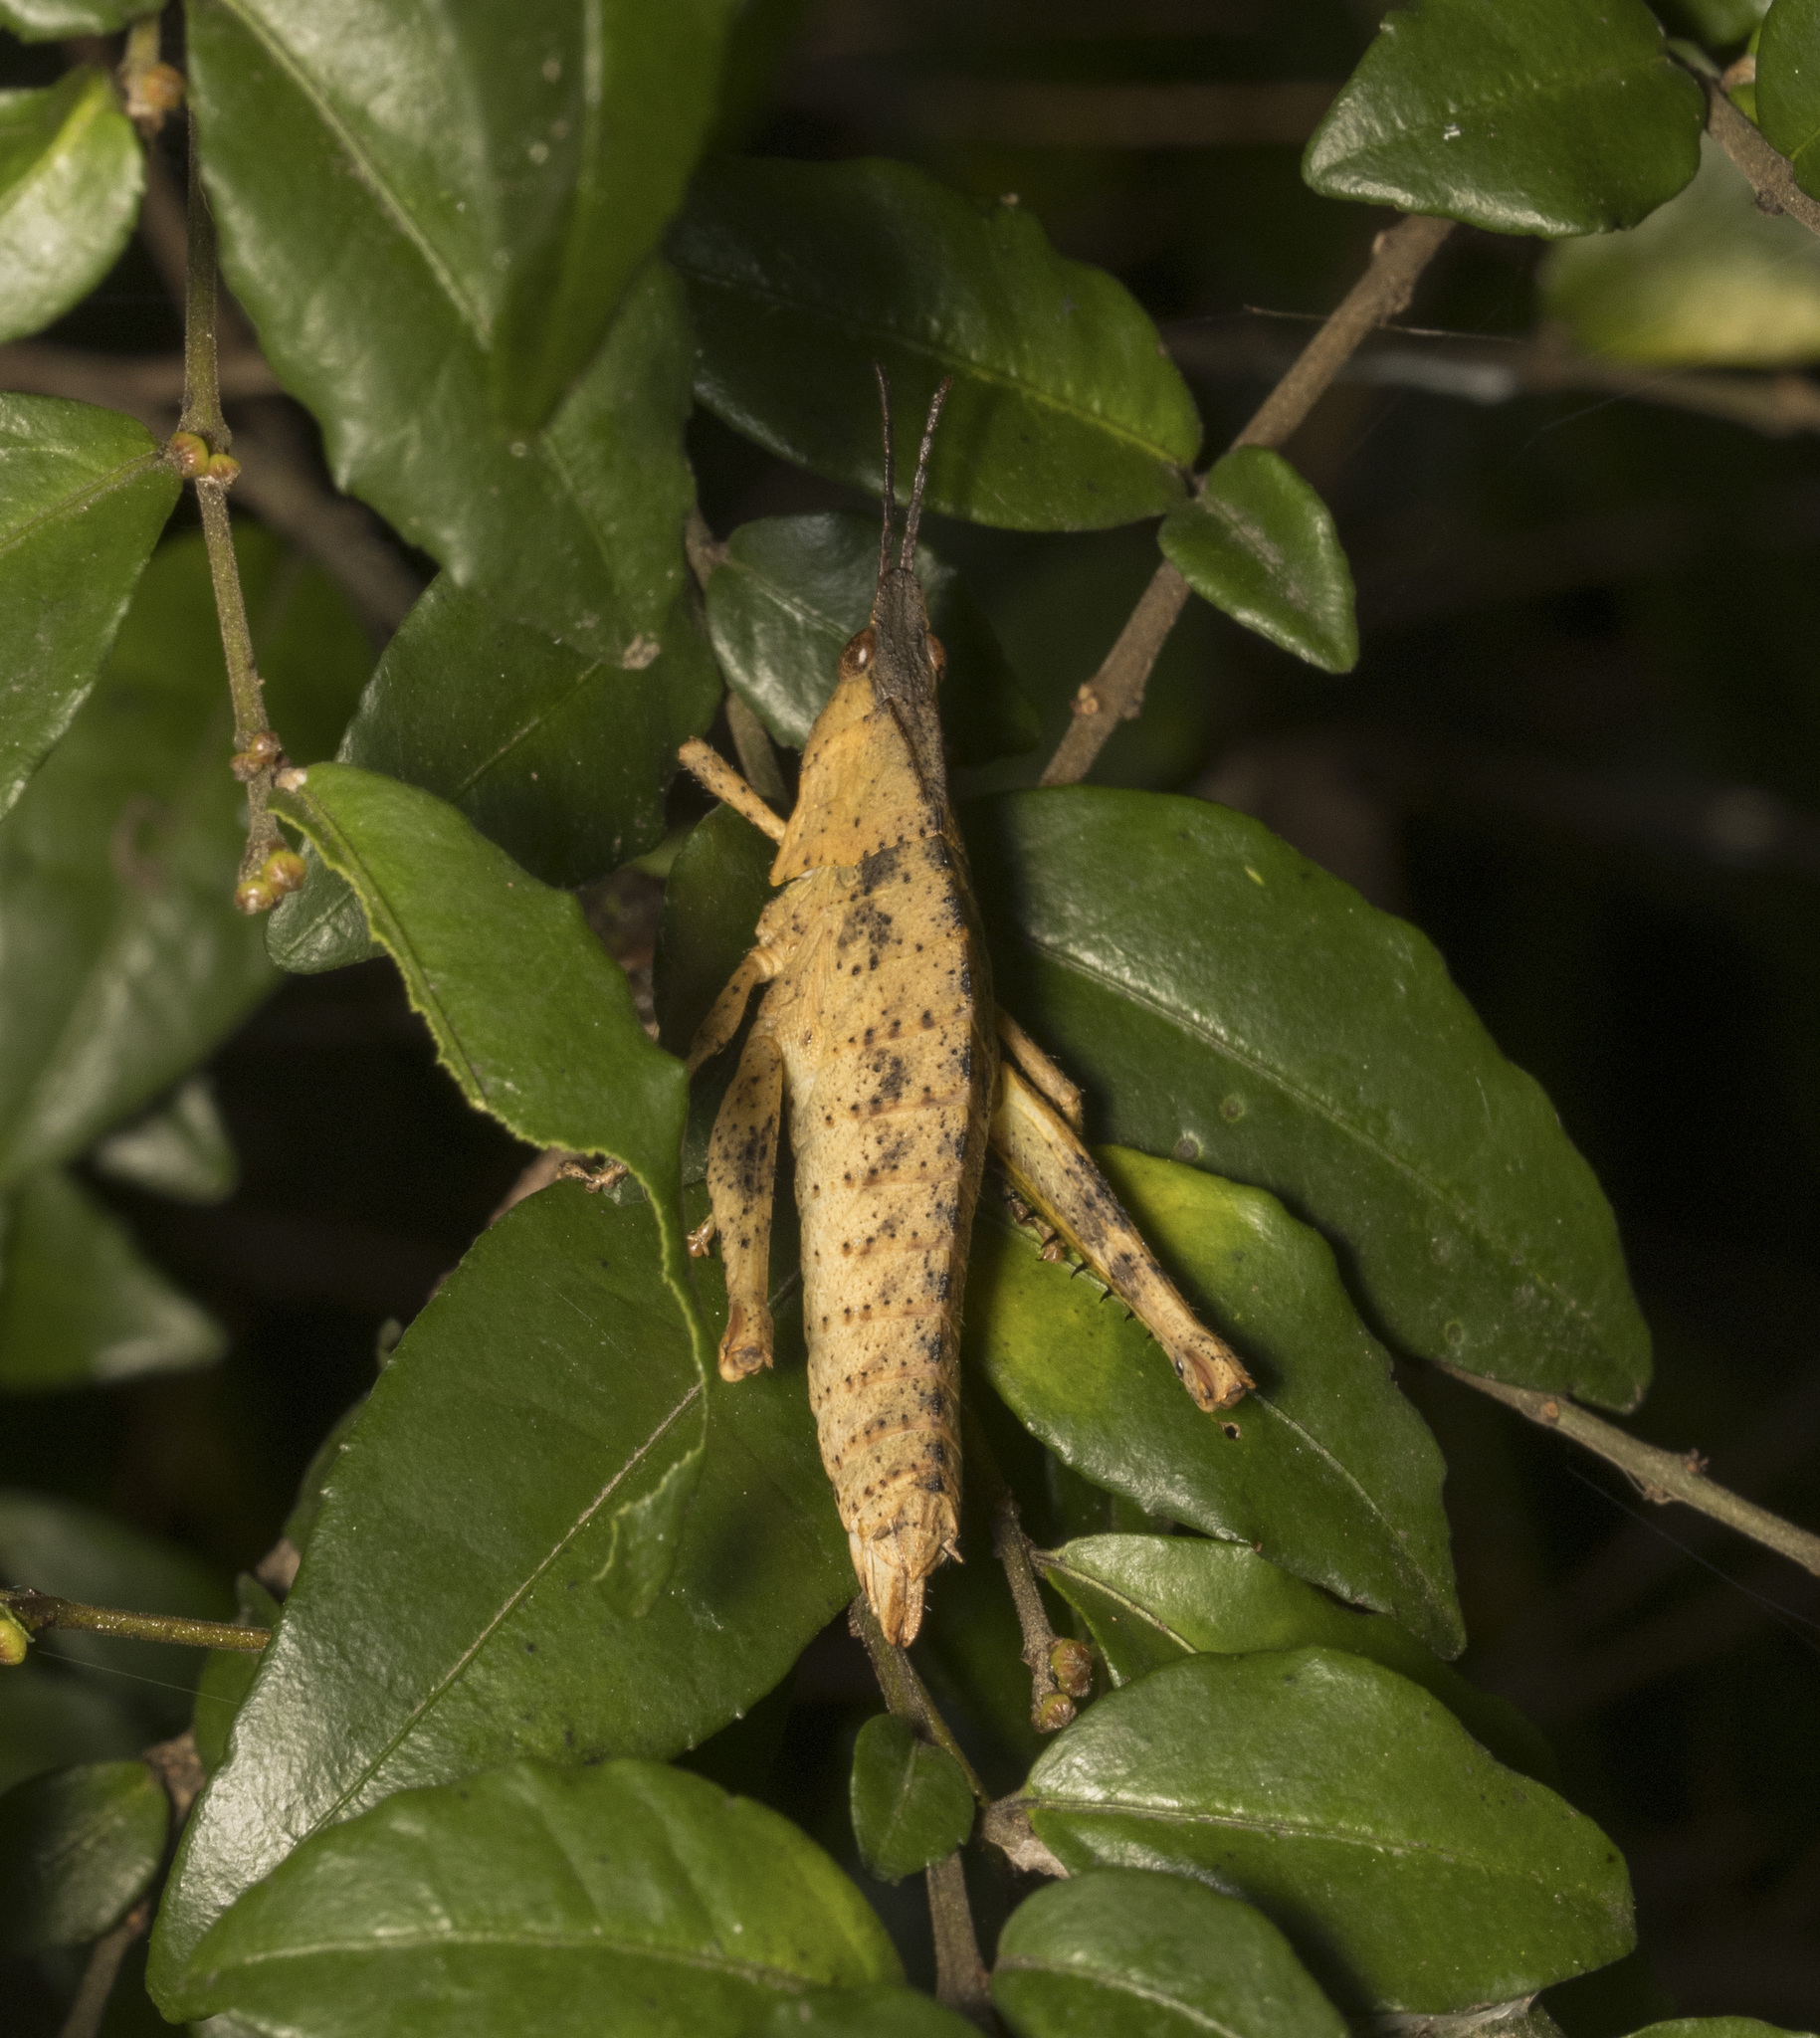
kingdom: Animalia
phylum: Arthropoda
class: Insecta
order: Orthoptera
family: Tristiridae
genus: Tropidostethus
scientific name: Tropidostethus angusticollis
